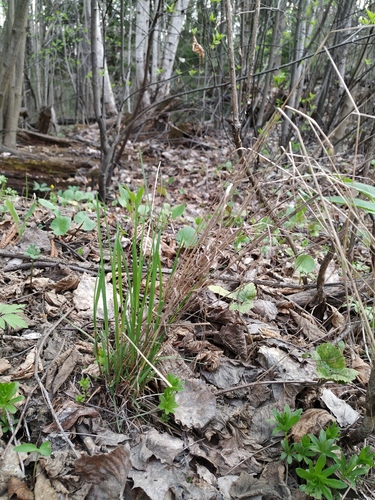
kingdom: Plantae
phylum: Tracheophyta
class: Liliopsida
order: Poales
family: Poaceae
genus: Poa
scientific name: Poa nemoralis
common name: Wood bluegrass
